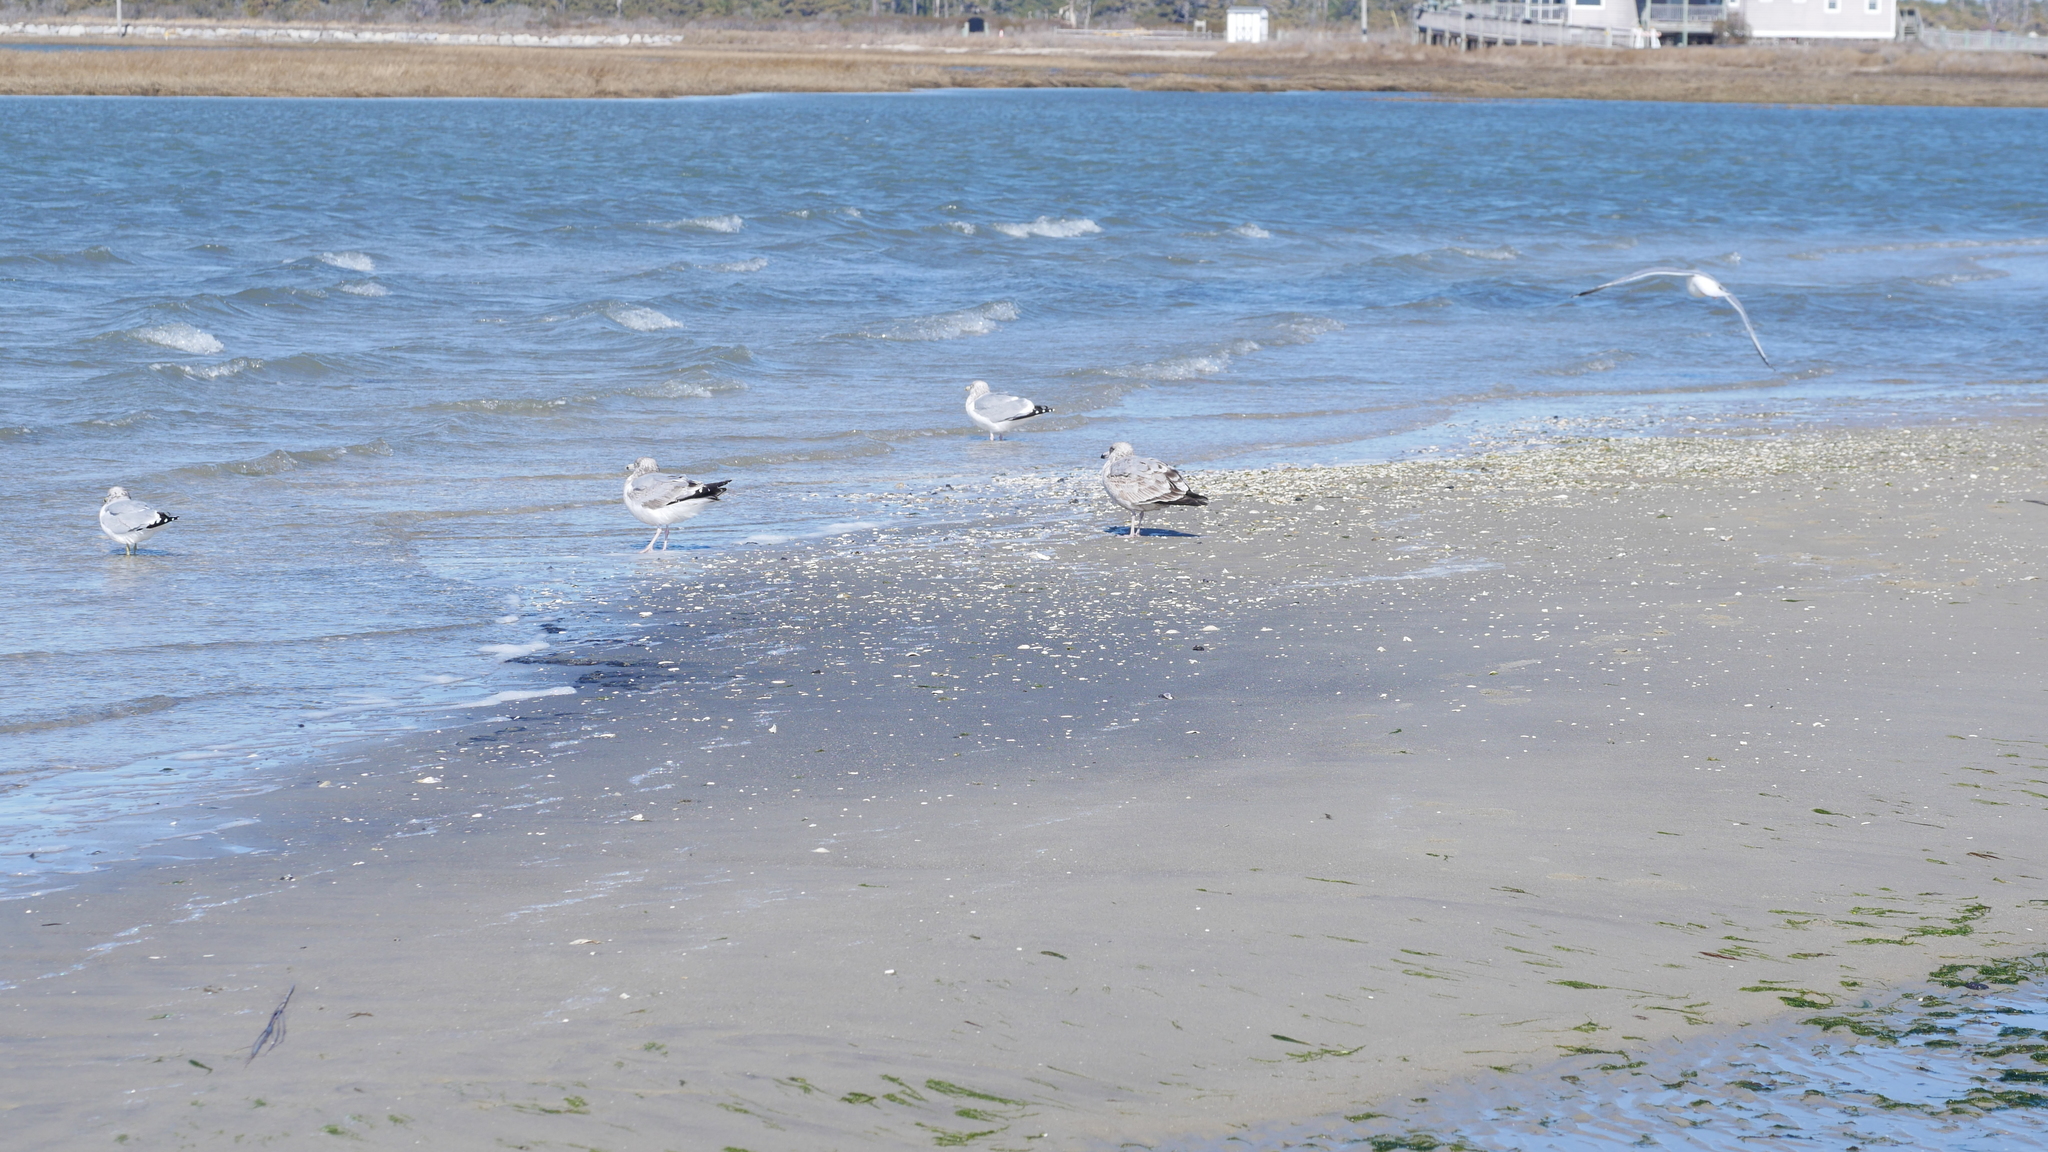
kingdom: Animalia
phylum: Chordata
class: Aves
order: Charadriiformes
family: Laridae
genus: Larus
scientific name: Larus argentatus
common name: Herring gull
